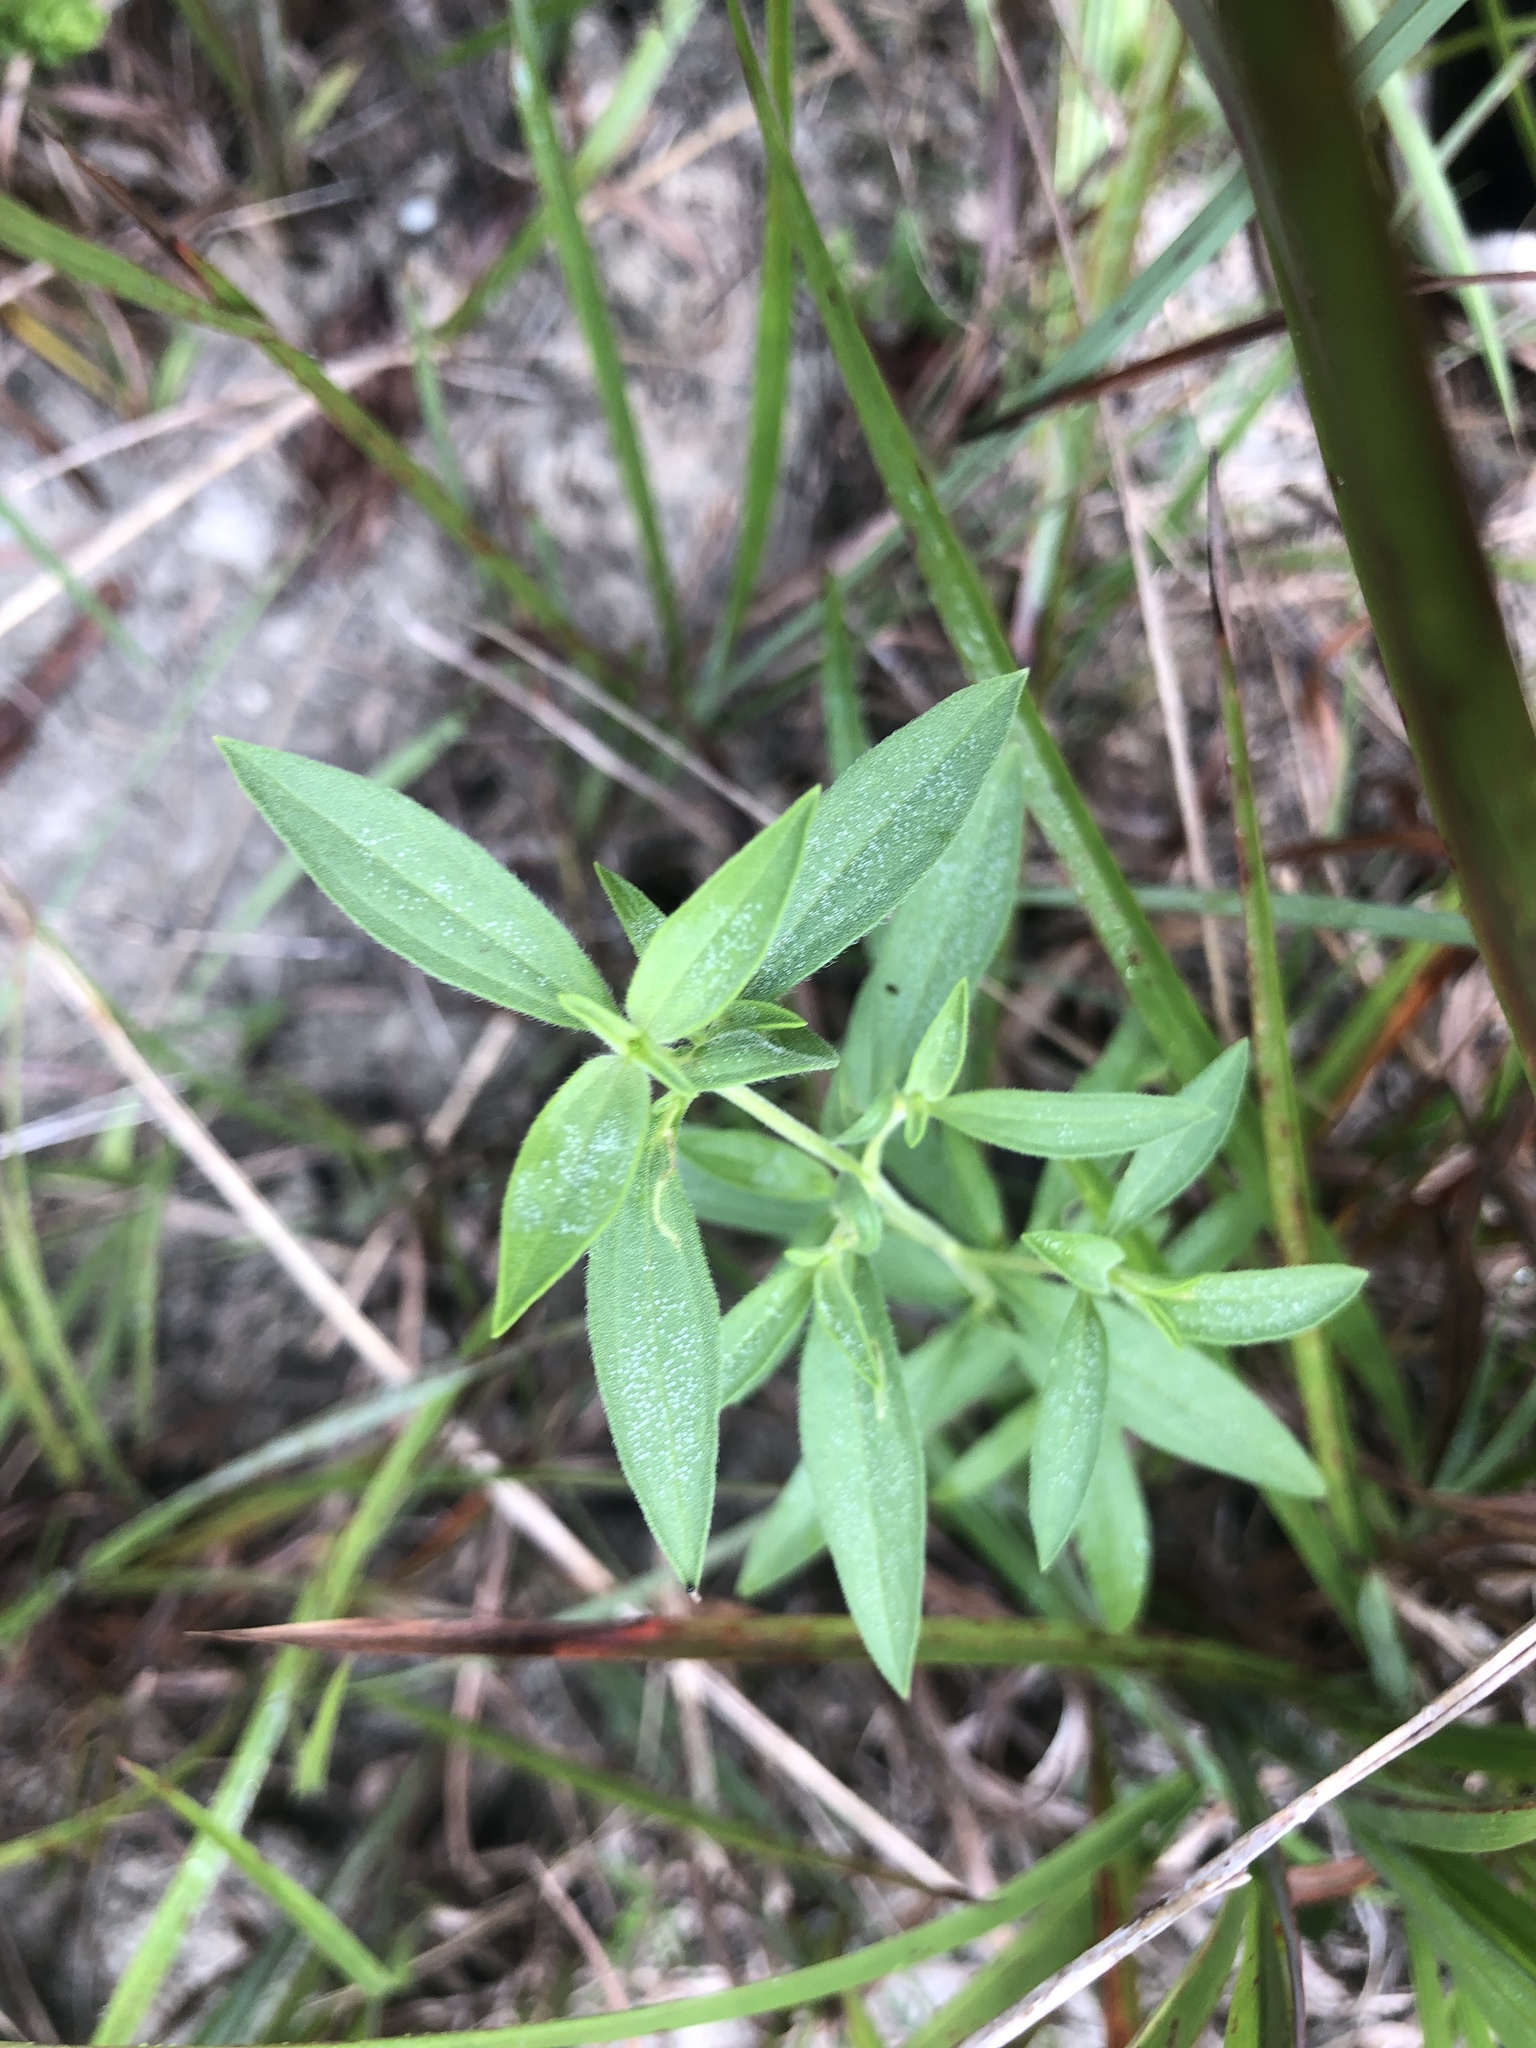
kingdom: Plantae
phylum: Tracheophyta
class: Magnoliopsida
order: Lamiales
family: Lamiaceae
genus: Trichostema
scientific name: Trichostema brachiatum
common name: False pennyroyal
